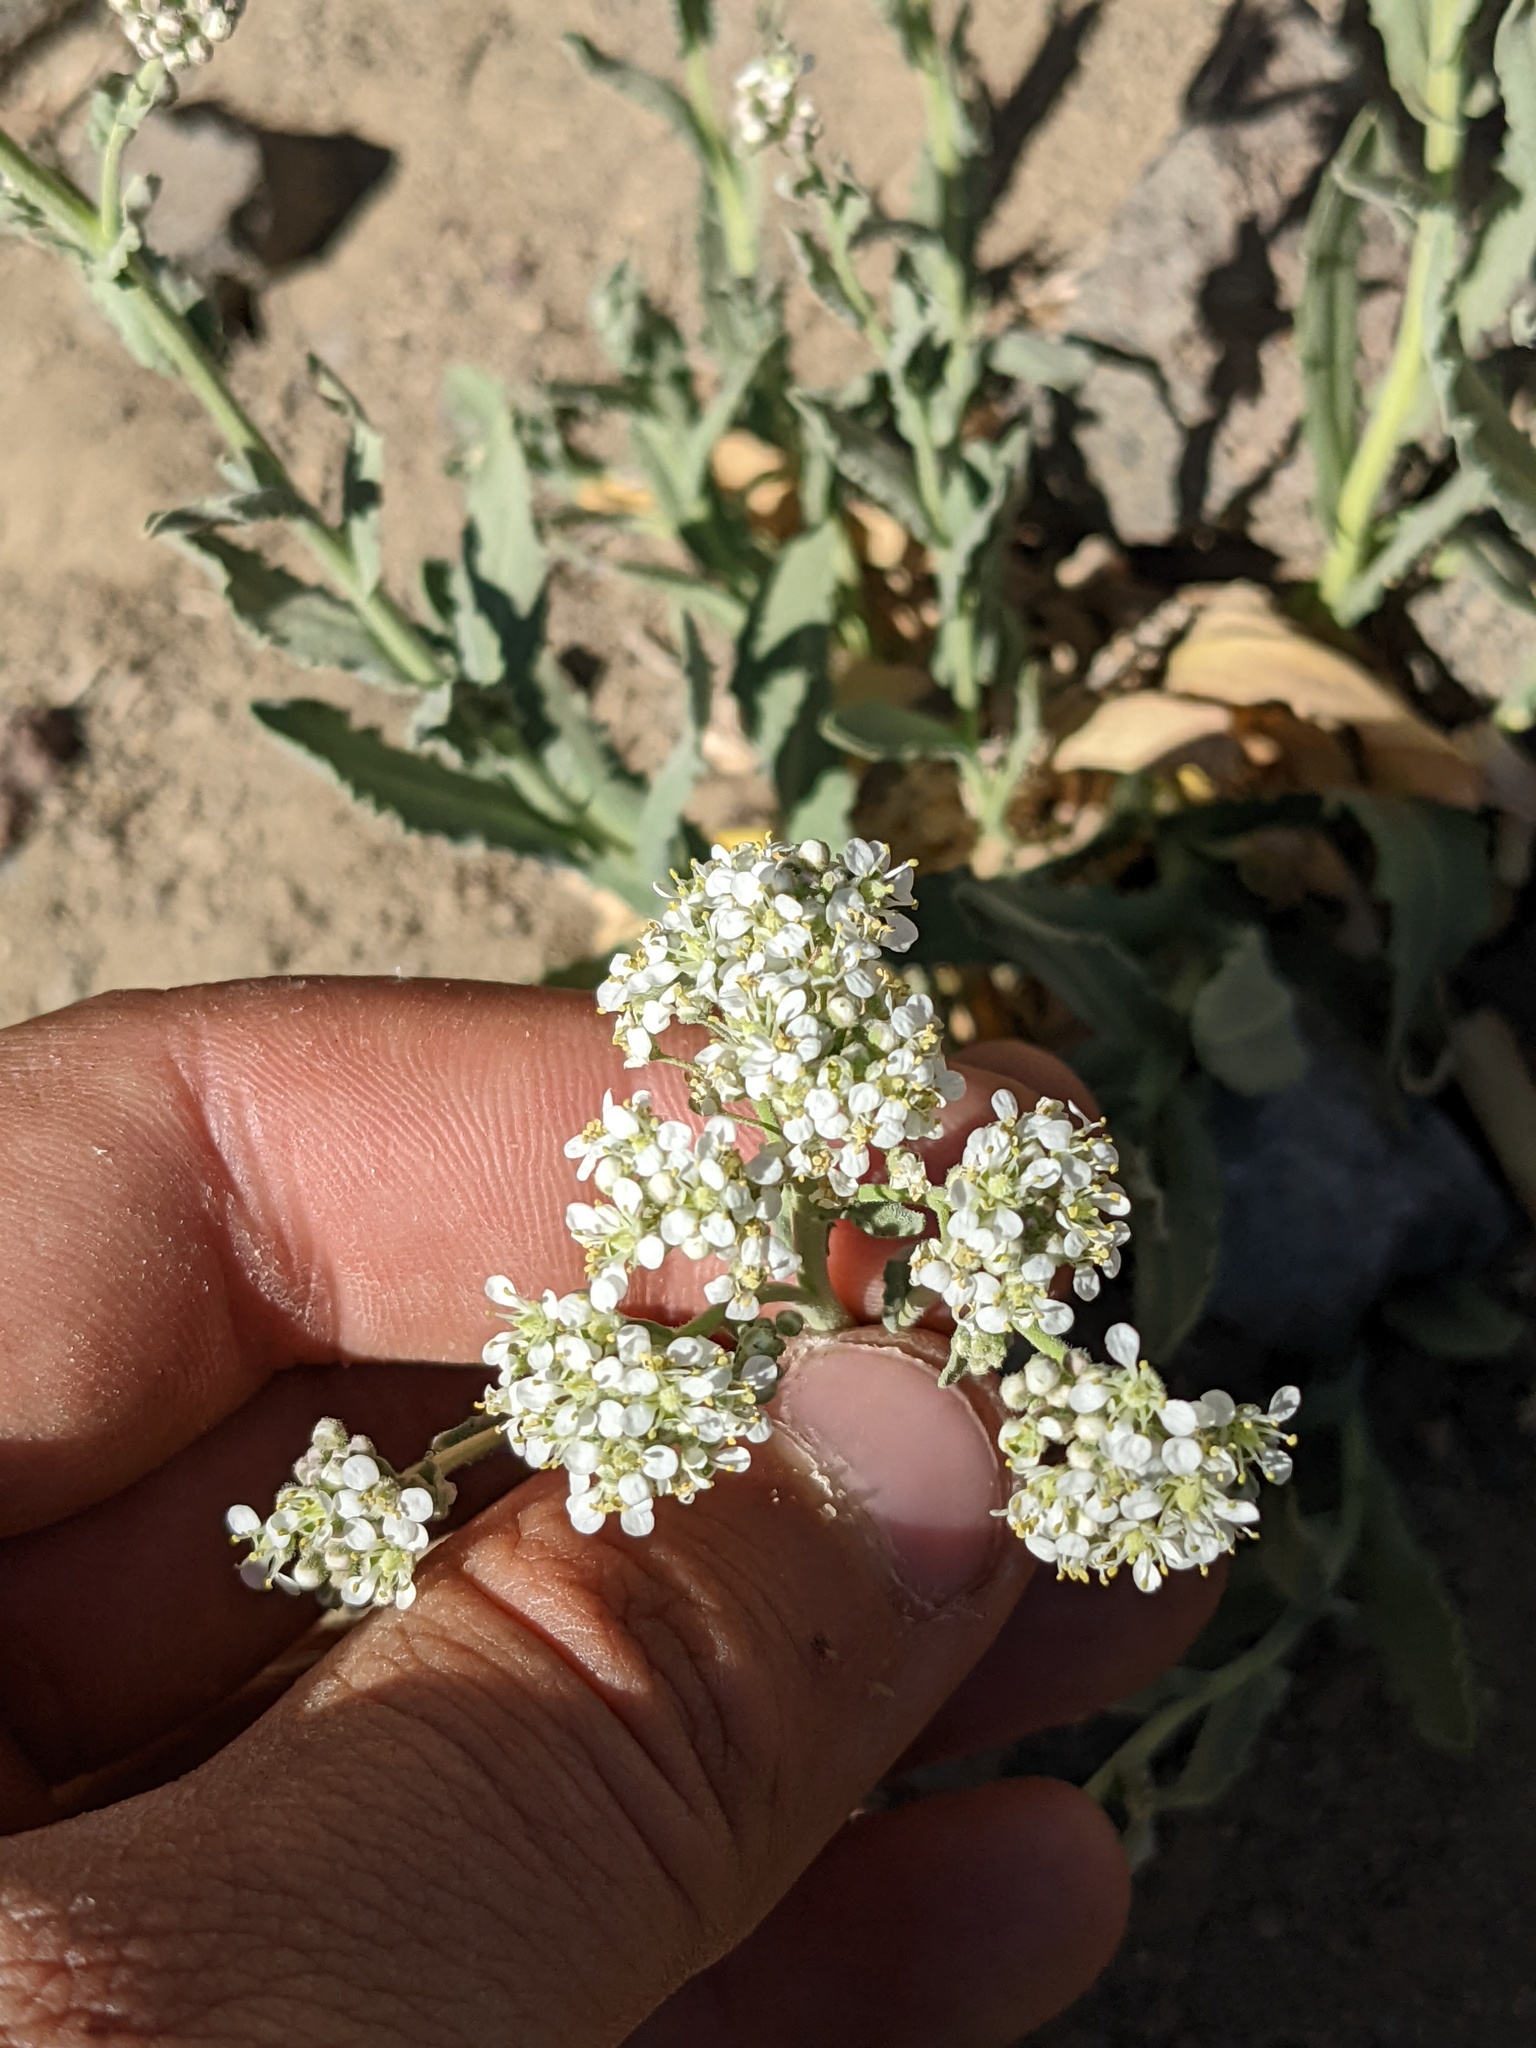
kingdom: Plantae
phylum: Tracheophyta
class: Magnoliopsida
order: Brassicales
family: Brassicaceae
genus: Lepidium
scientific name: Lepidium appelianum
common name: Hairy whitetop
